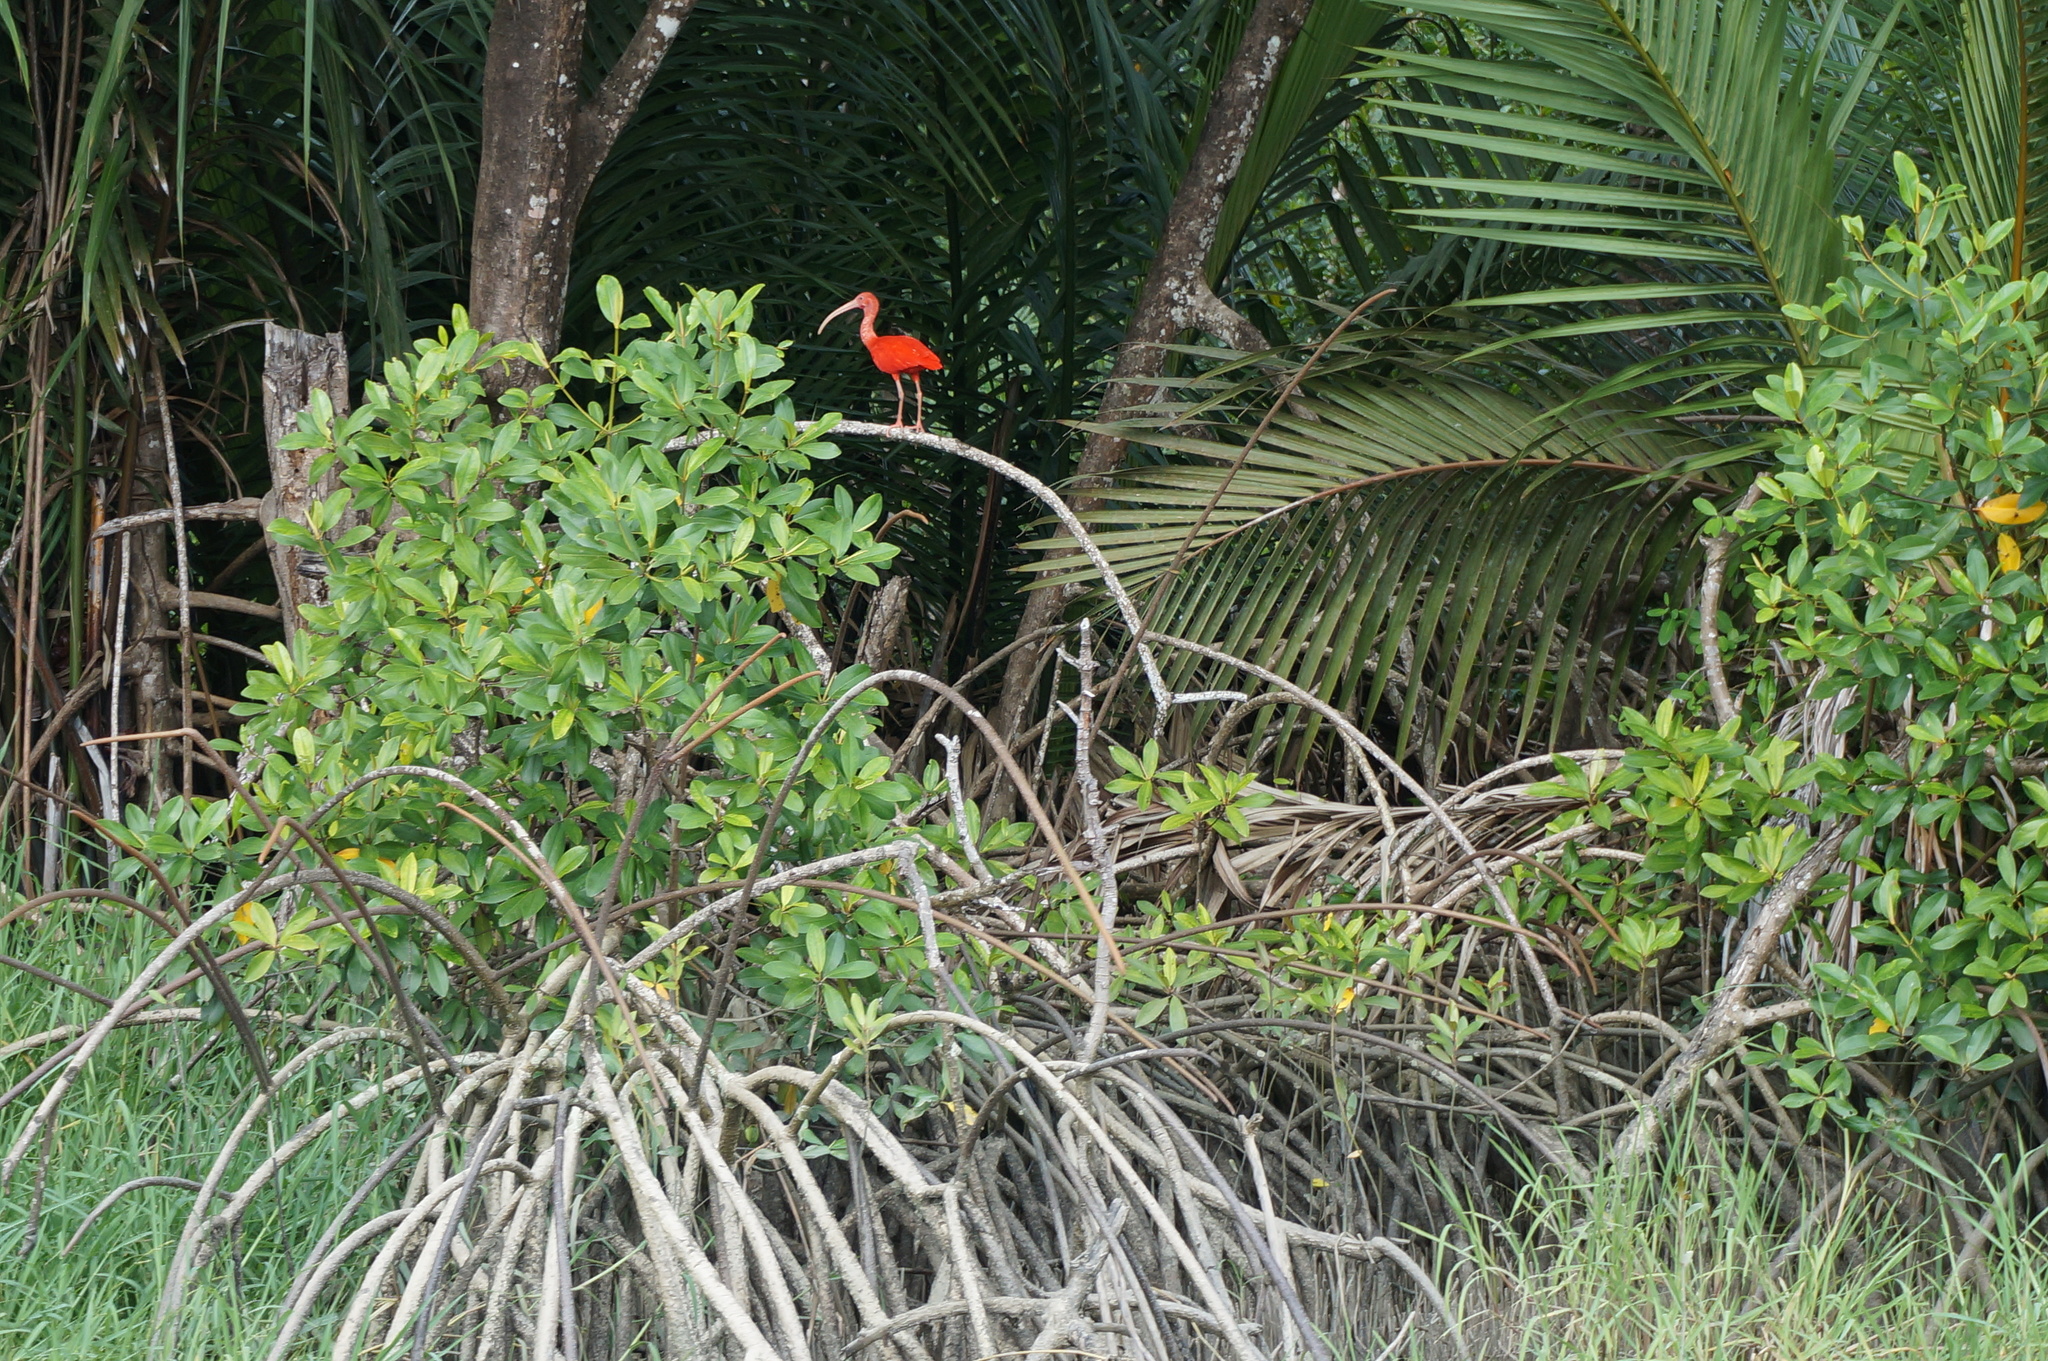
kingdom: Animalia
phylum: Chordata
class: Aves
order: Pelecaniformes
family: Threskiornithidae
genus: Eudocimus
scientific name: Eudocimus ruber
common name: Scarlet ibis
